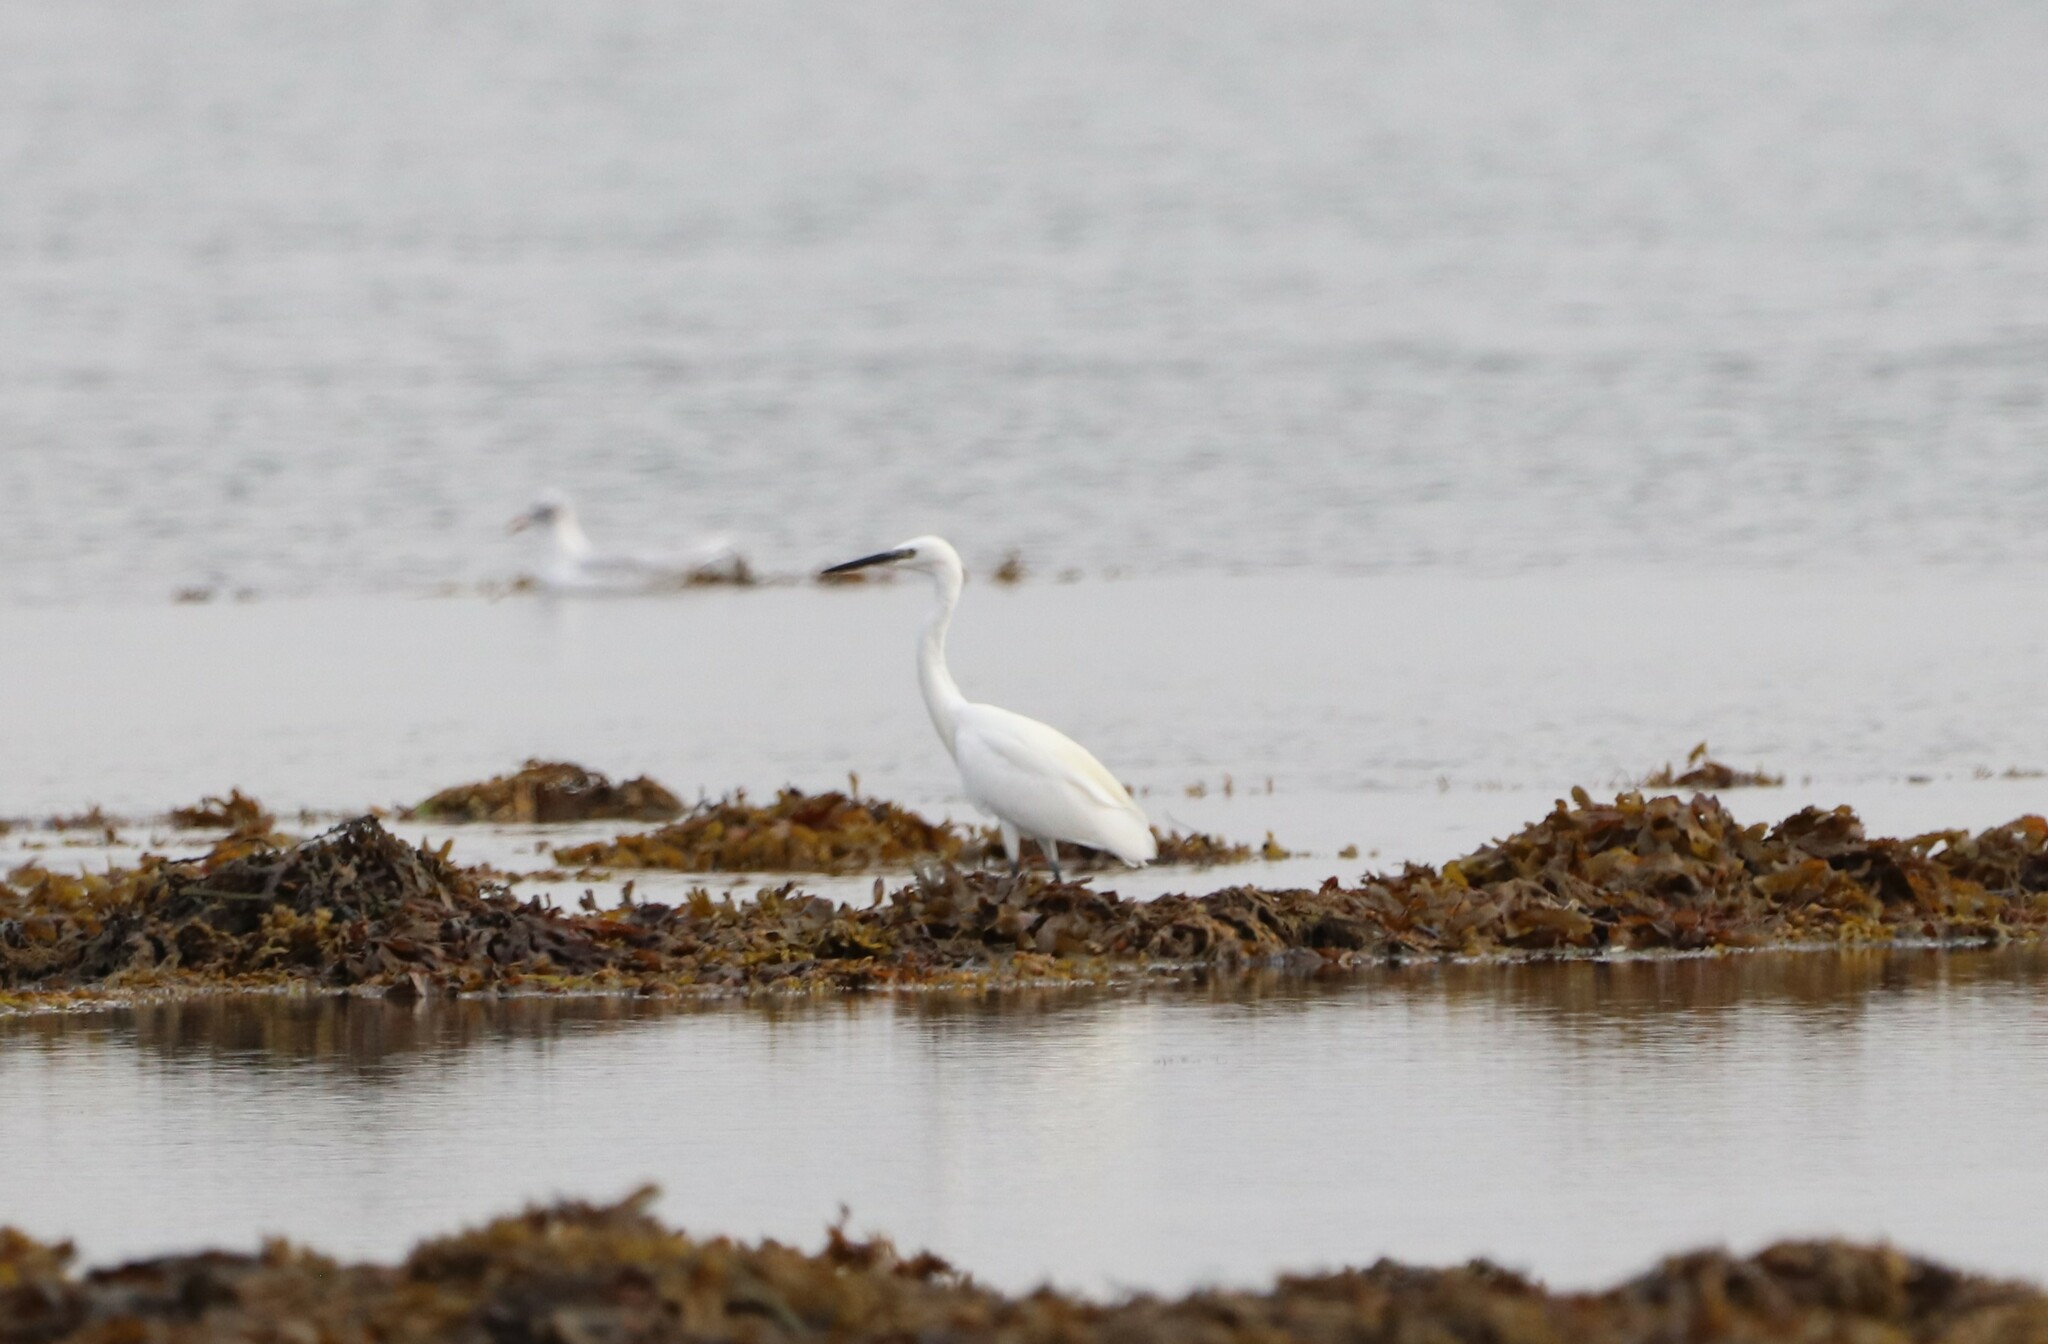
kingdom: Animalia
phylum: Chordata
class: Aves
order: Pelecaniformes
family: Ardeidae
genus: Egretta
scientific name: Egretta garzetta
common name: Little egret
